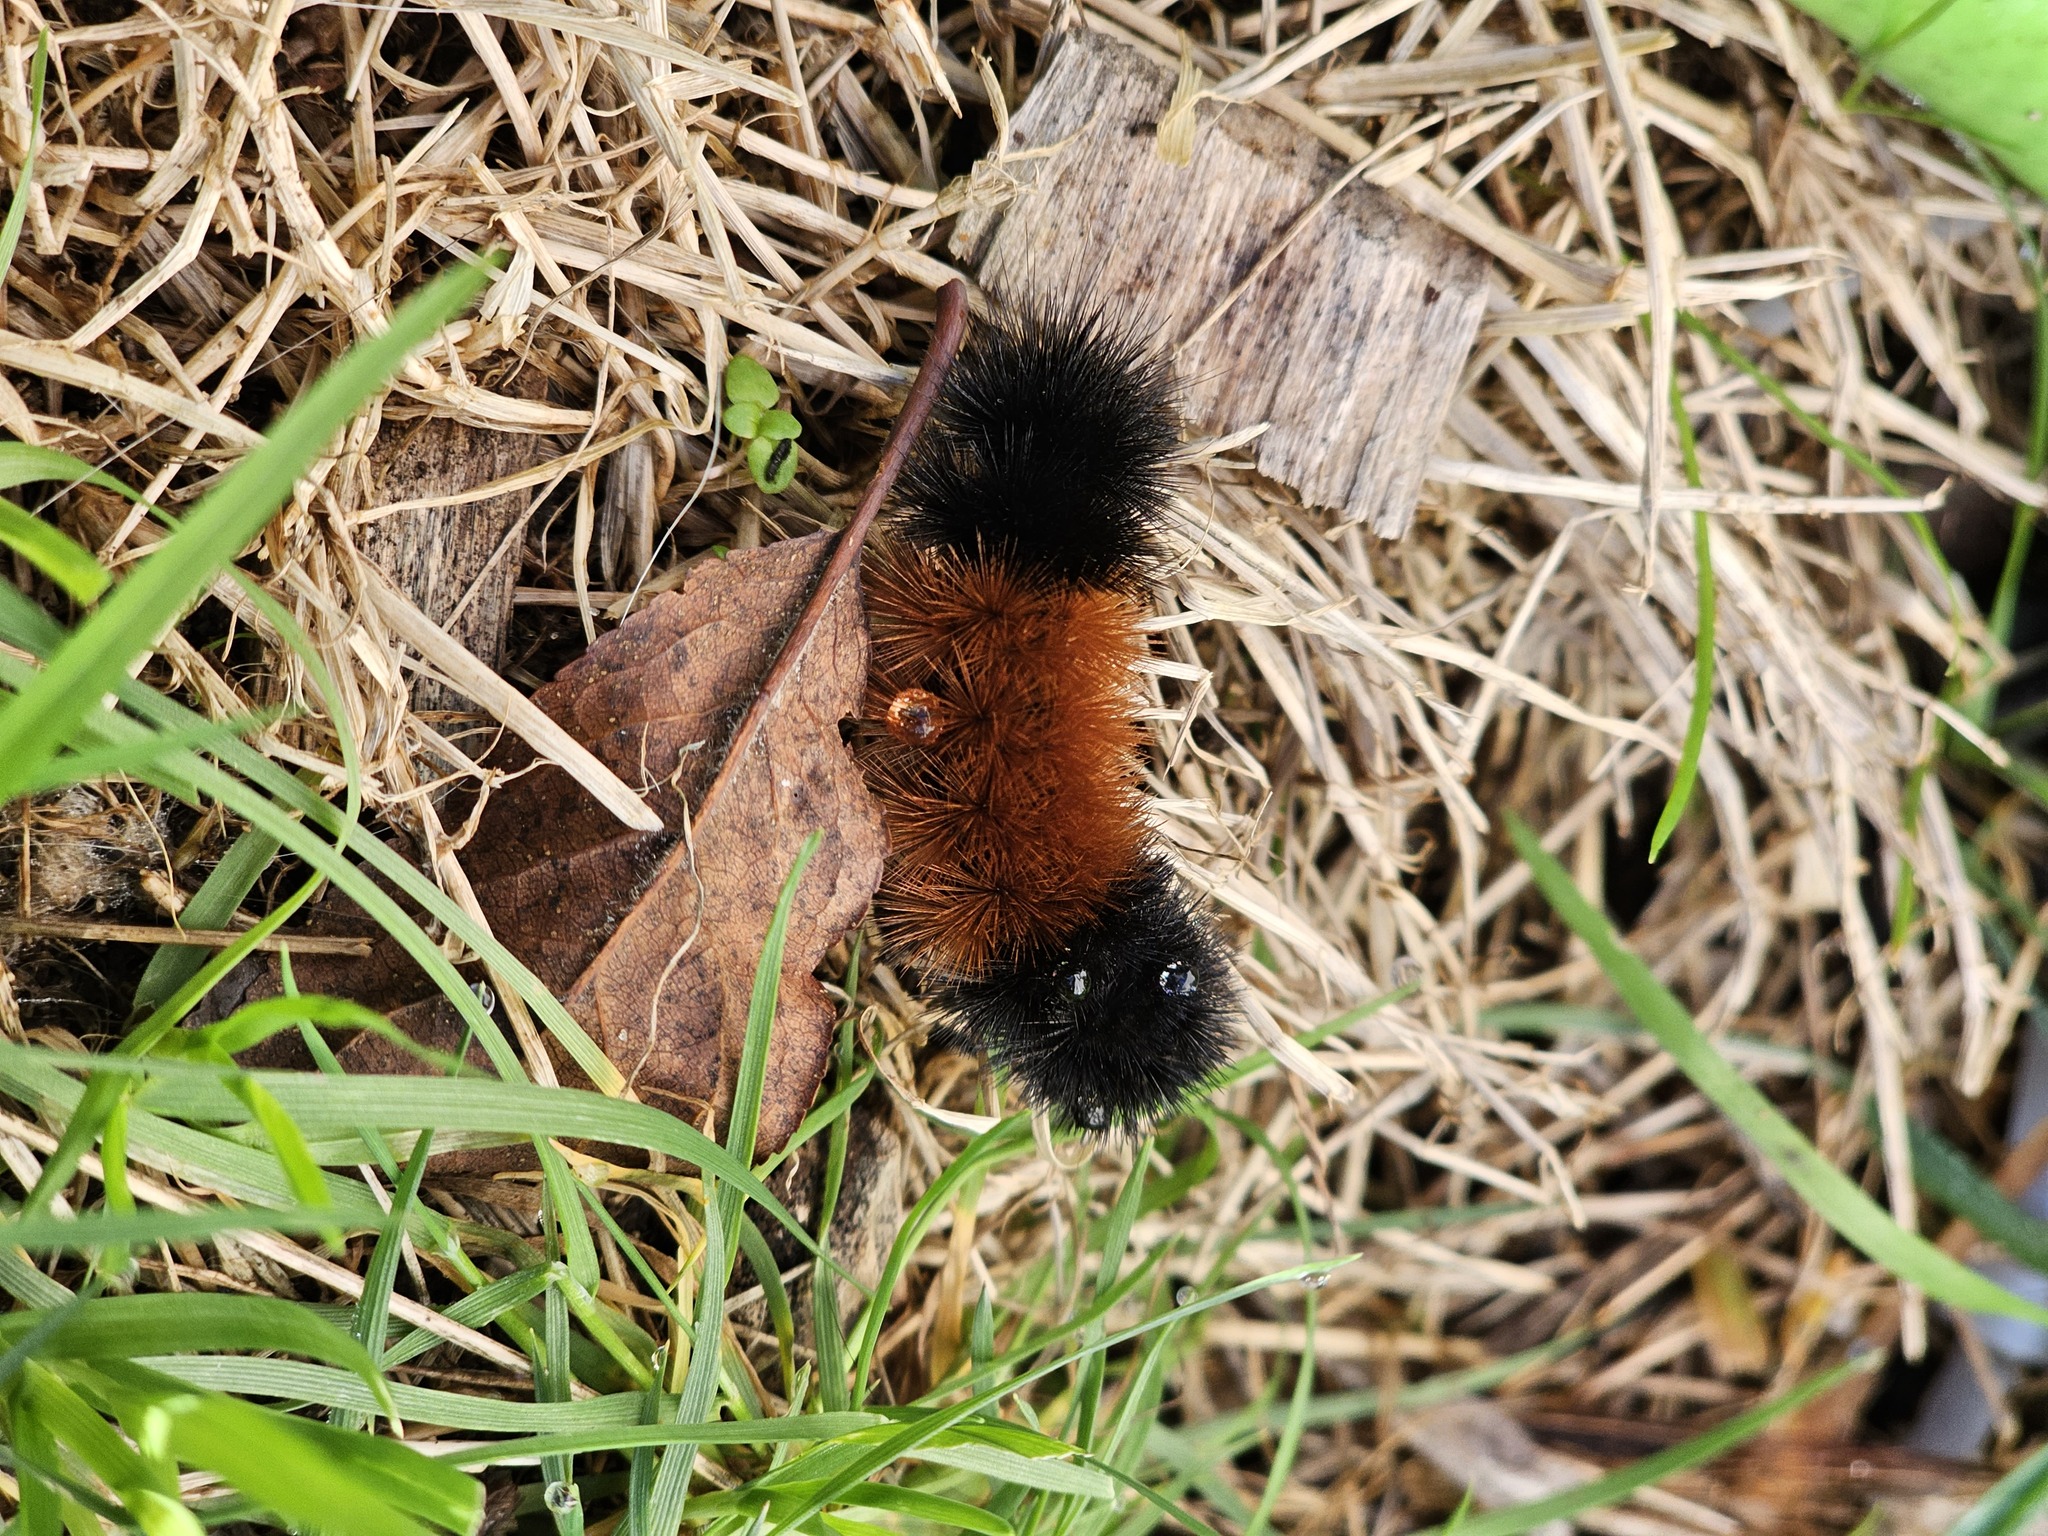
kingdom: Animalia
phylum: Arthropoda
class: Insecta
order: Lepidoptera
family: Erebidae
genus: Pyrrharctia
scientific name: Pyrrharctia isabella
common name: Isabella tiger moth
